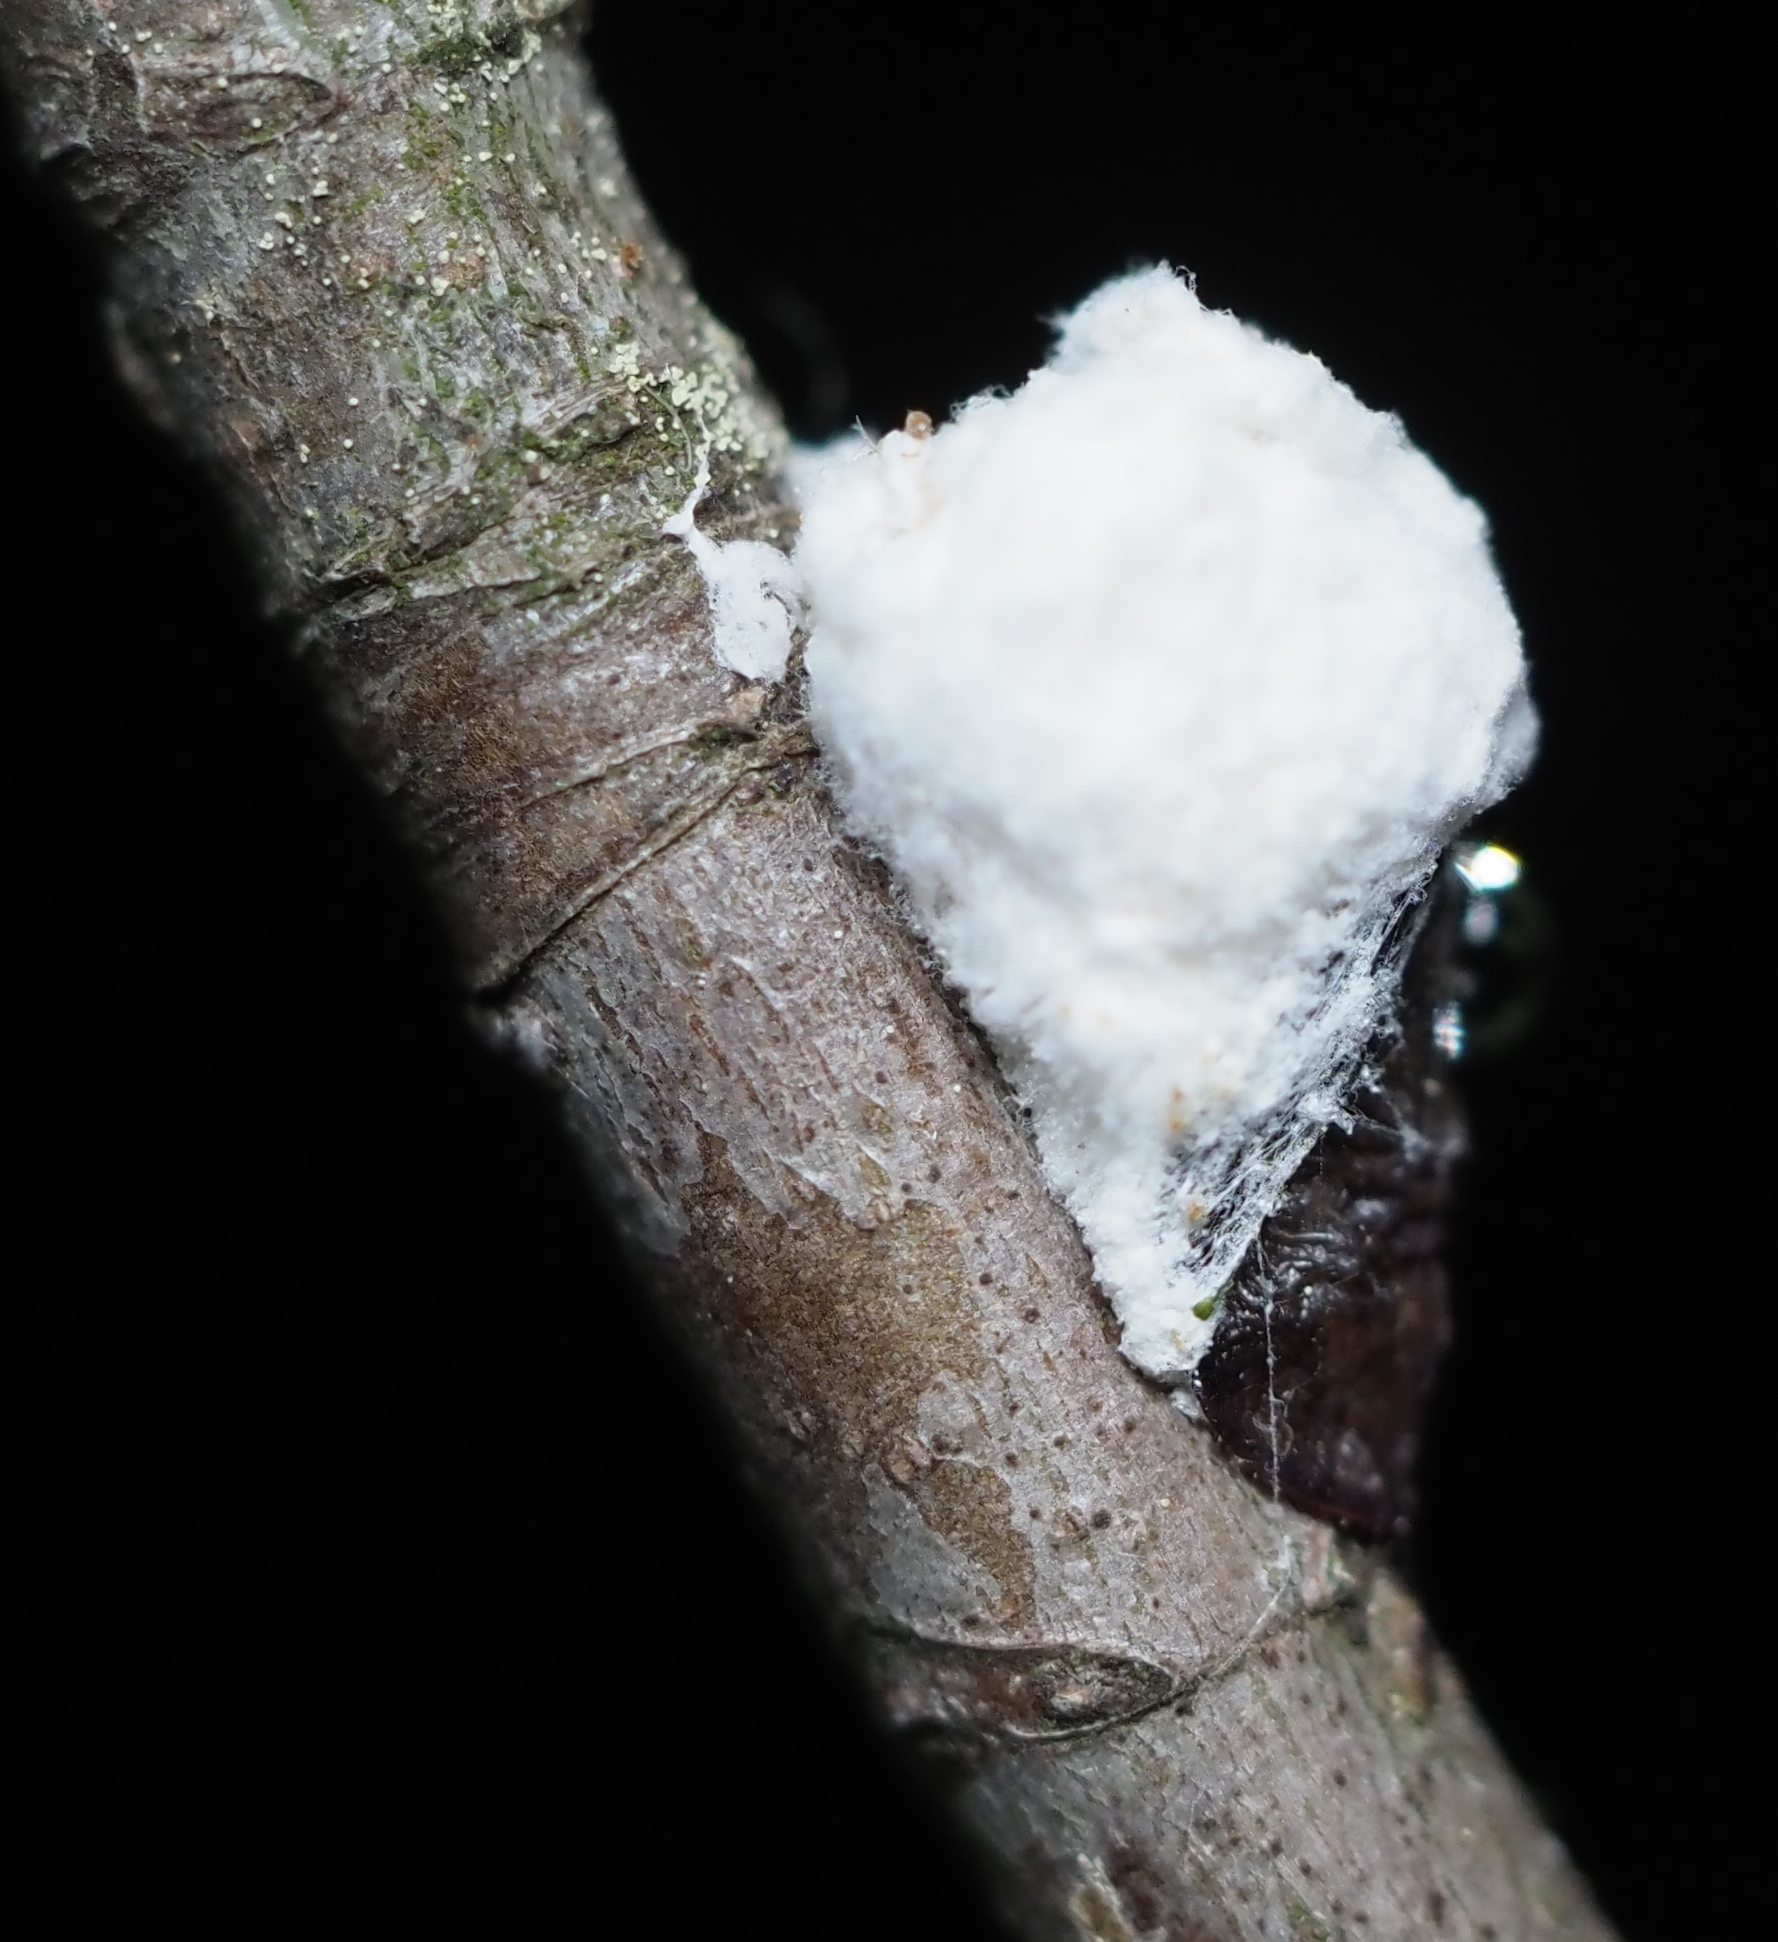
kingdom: Animalia
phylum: Arthropoda
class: Insecta
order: Hemiptera
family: Coccidae
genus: Pulvinaria
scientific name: Pulvinaria
